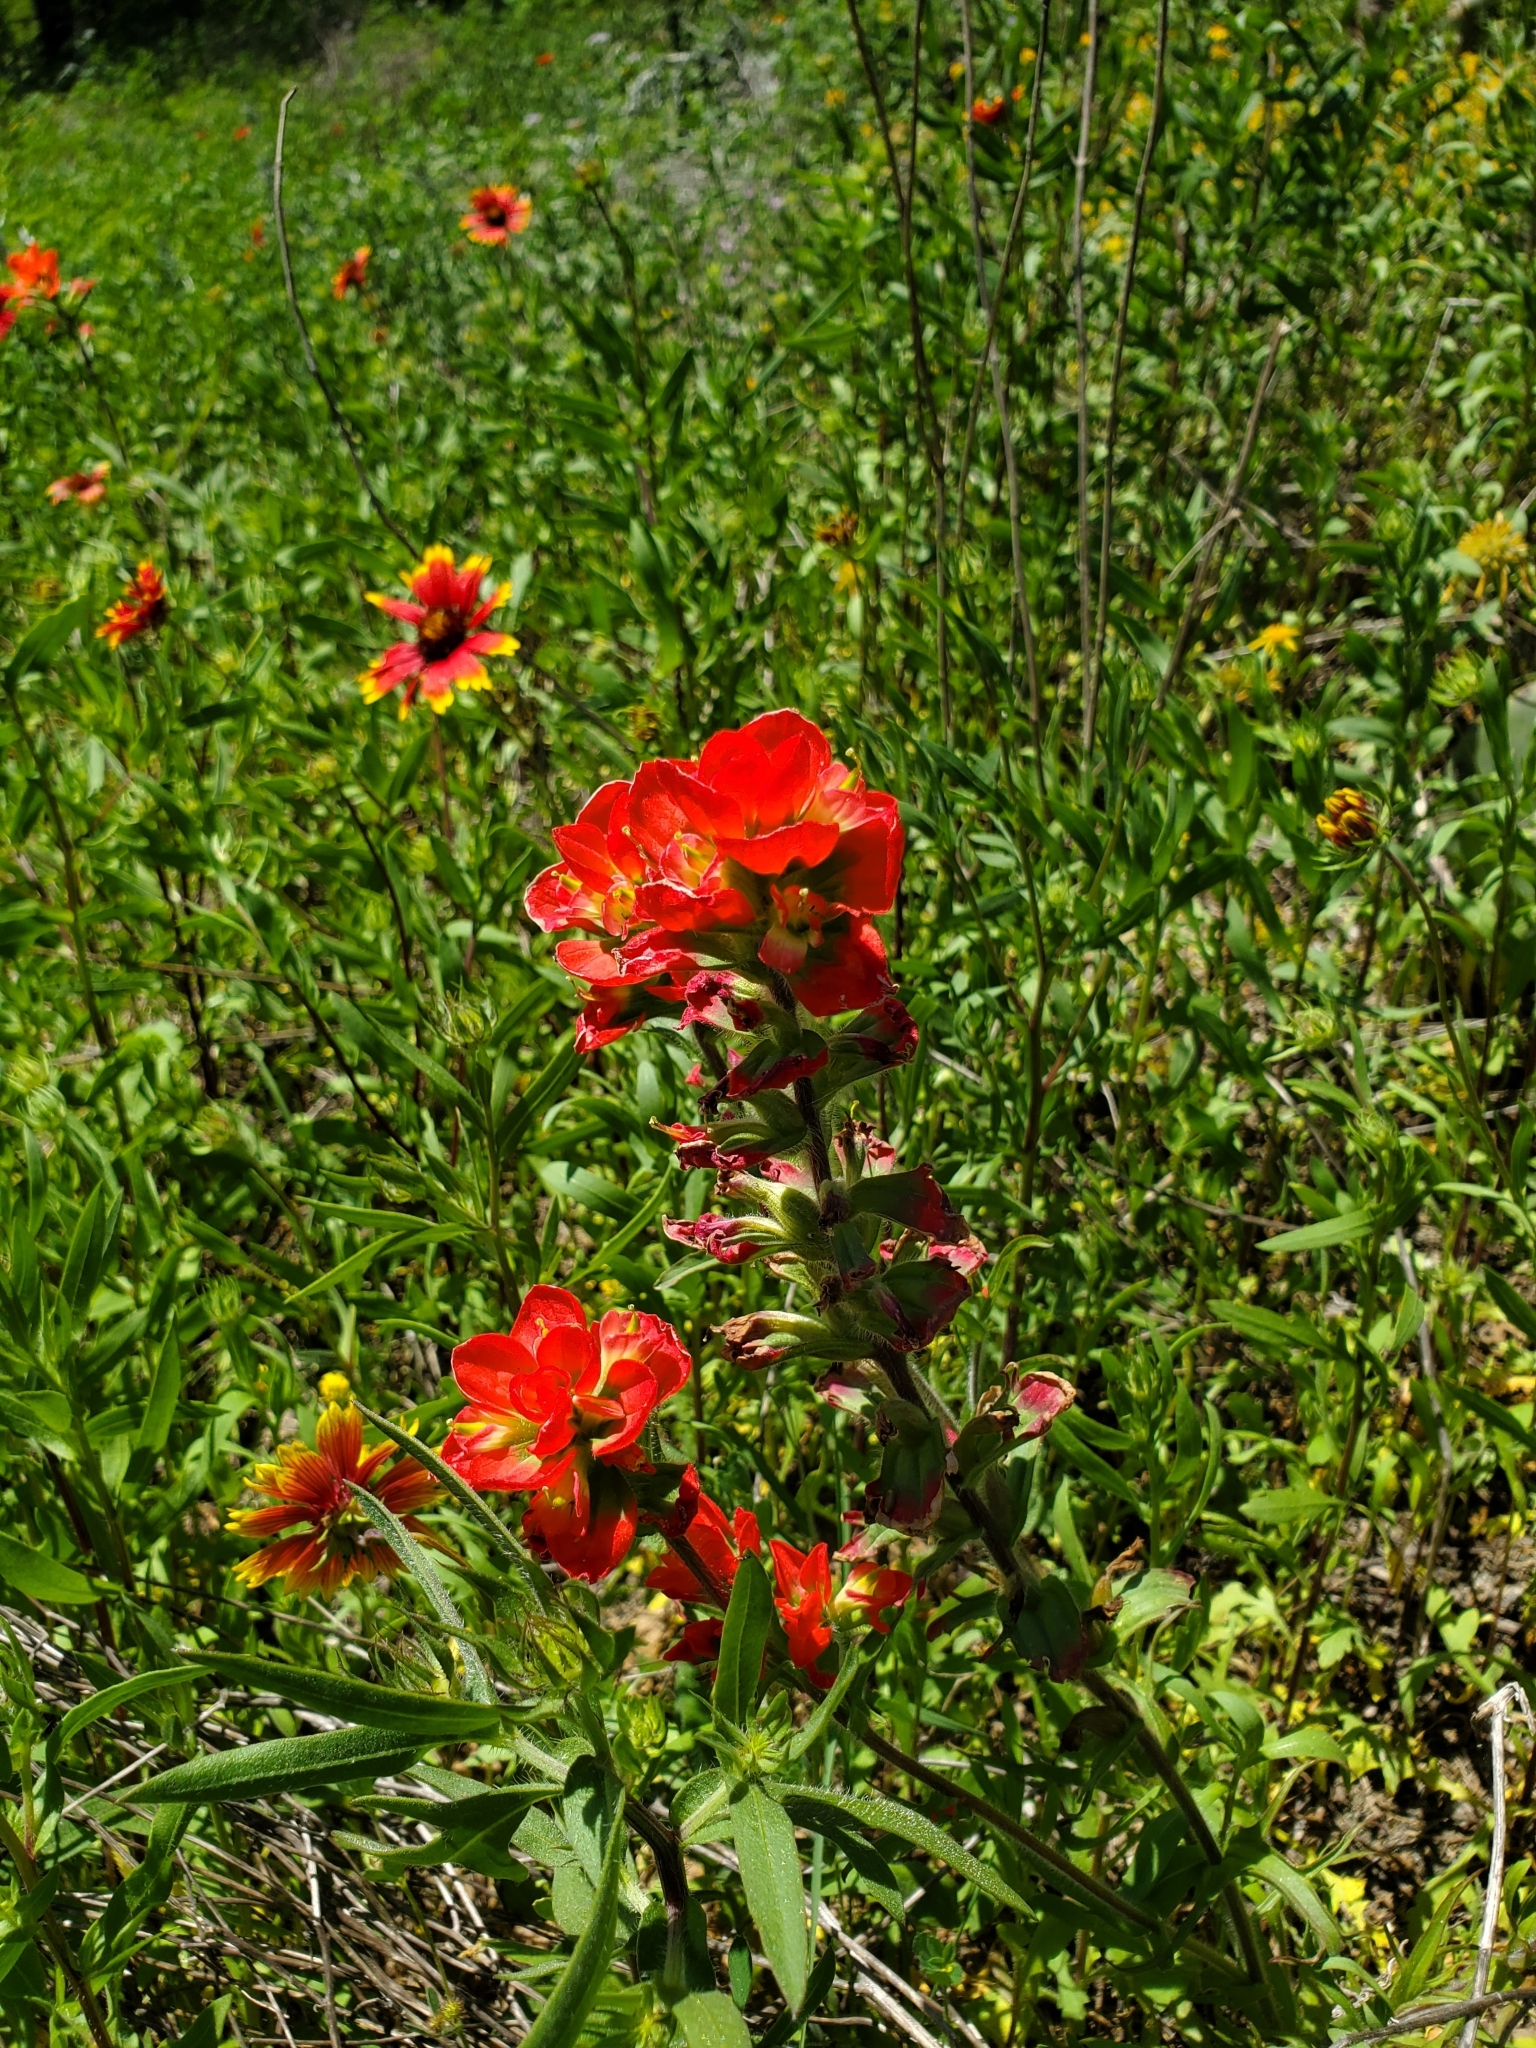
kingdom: Plantae
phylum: Tracheophyta
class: Magnoliopsida
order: Lamiales
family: Orobanchaceae
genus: Castilleja
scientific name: Castilleja indivisa
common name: Texas paintbrush
